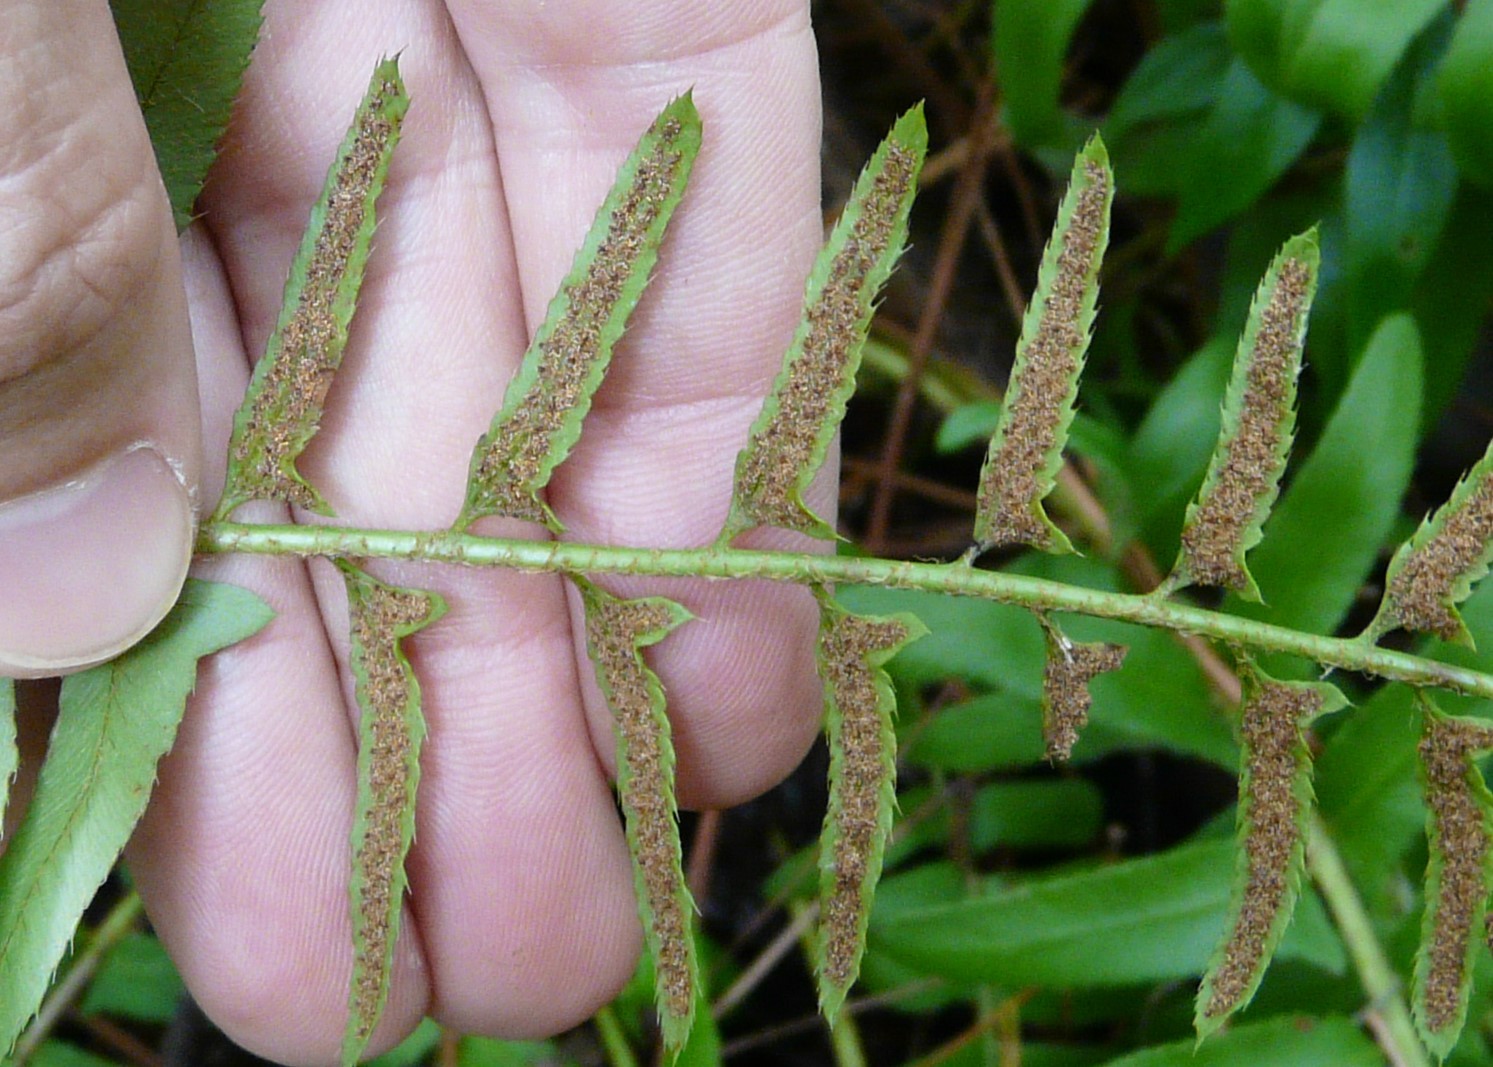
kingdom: Plantae
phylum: Tracheophyta
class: Polypodiopsida
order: Polypodiales
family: Dryopteridaceae
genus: Polystichum
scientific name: Polystichum acrostichoides
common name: Christmas fern
